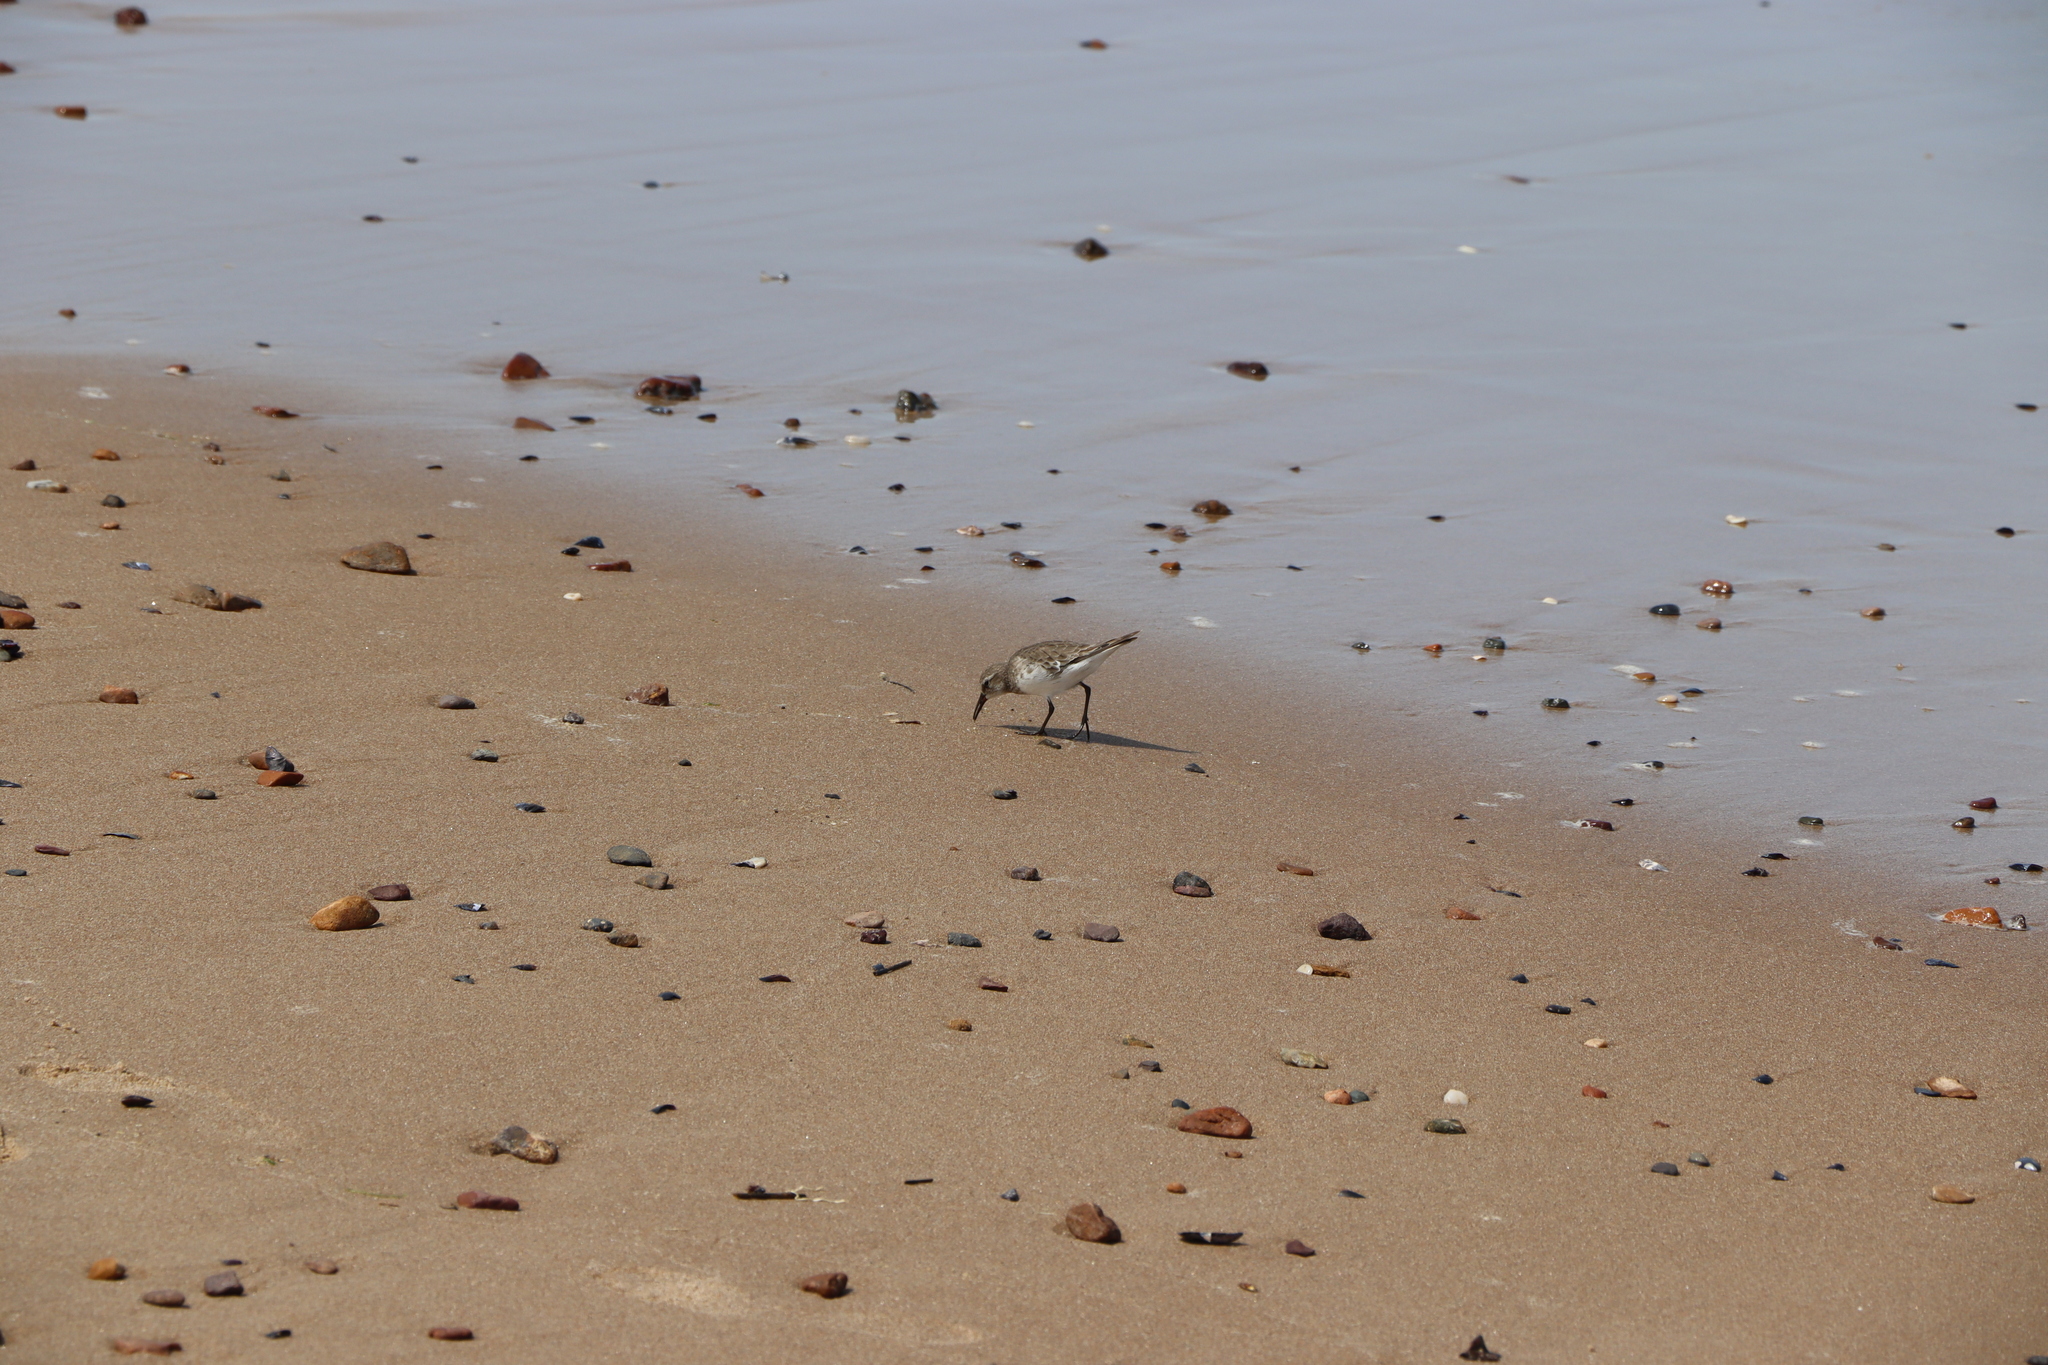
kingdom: Animalia
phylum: Chordata
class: Aves
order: Charadriiformes
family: Scolopacidae
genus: Calidris
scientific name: Calidris fuscicollis
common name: White-rumped sandpiper
